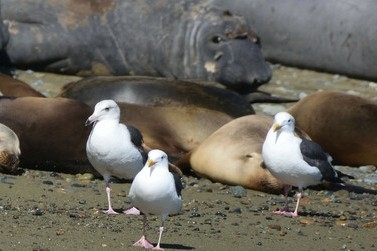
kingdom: Animalia
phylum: Chordata
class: Aves
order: Charadriiformes
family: Laridae
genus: Larus
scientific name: Larus occidentalis
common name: Western gull
